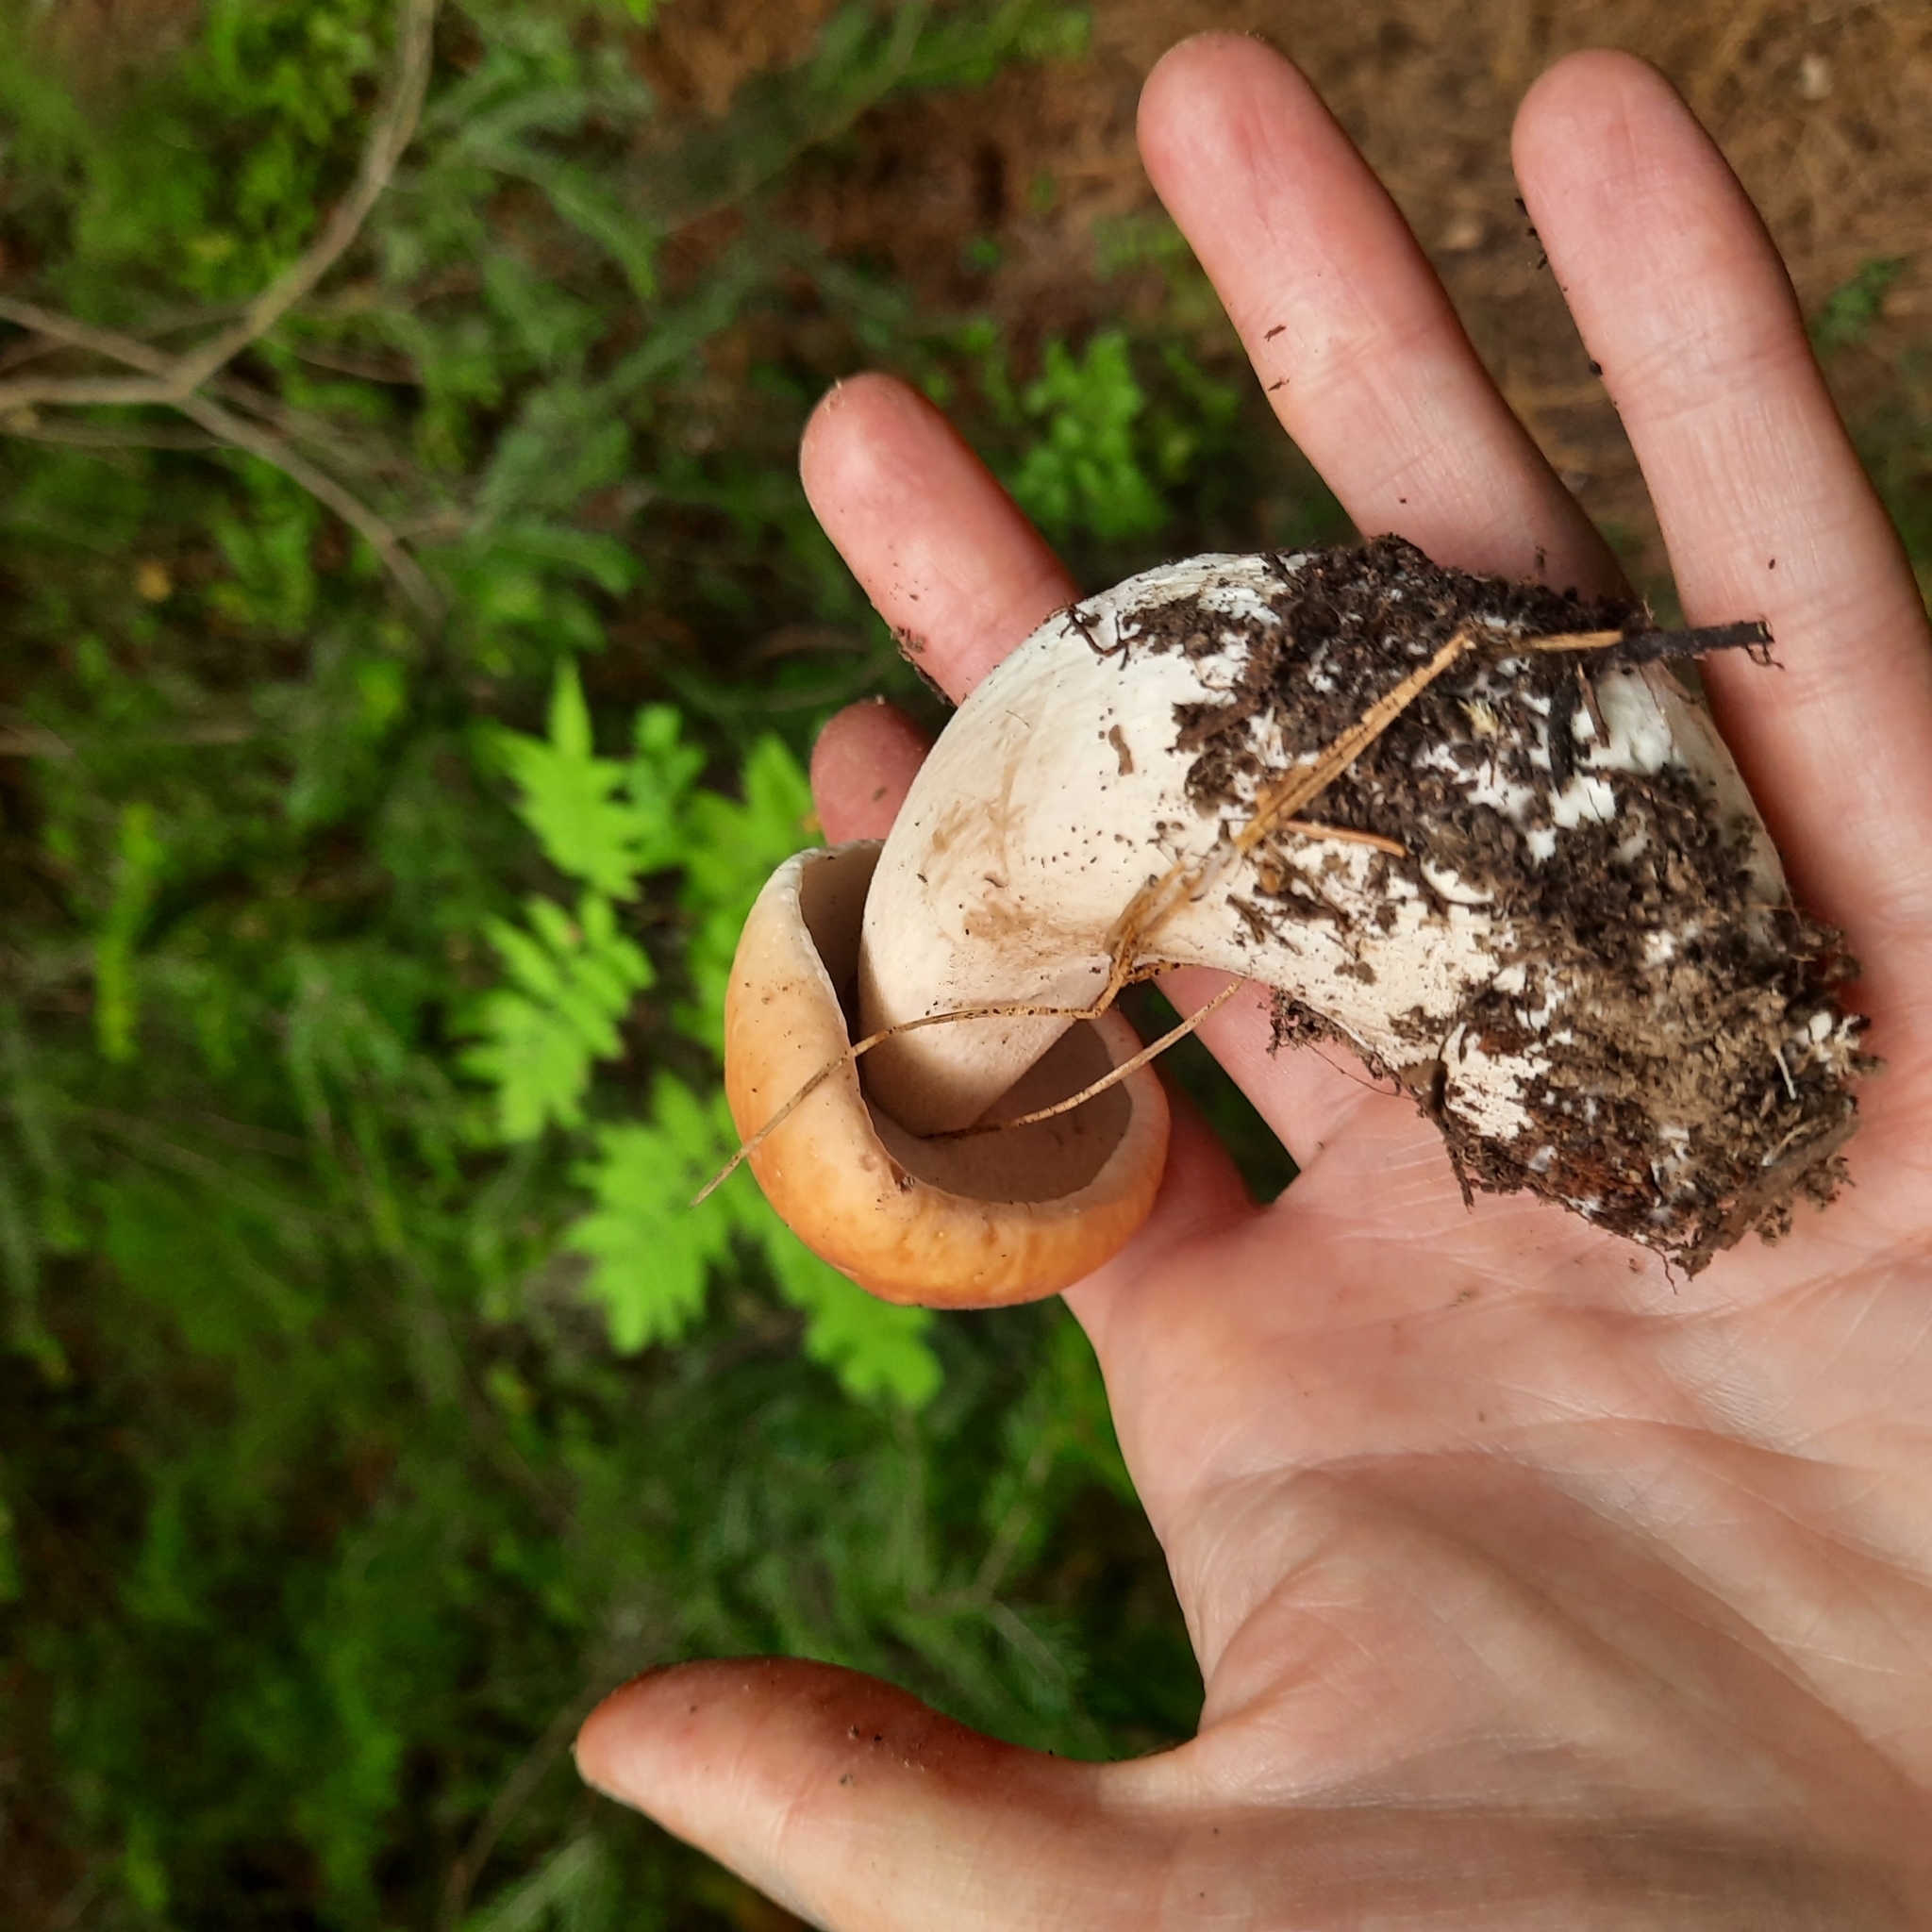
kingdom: Fungi
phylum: Basidiomycota
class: Agaricomycetes
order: Boletales
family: Boletaceae
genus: Boletus
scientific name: Boletus edulis
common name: Cep
